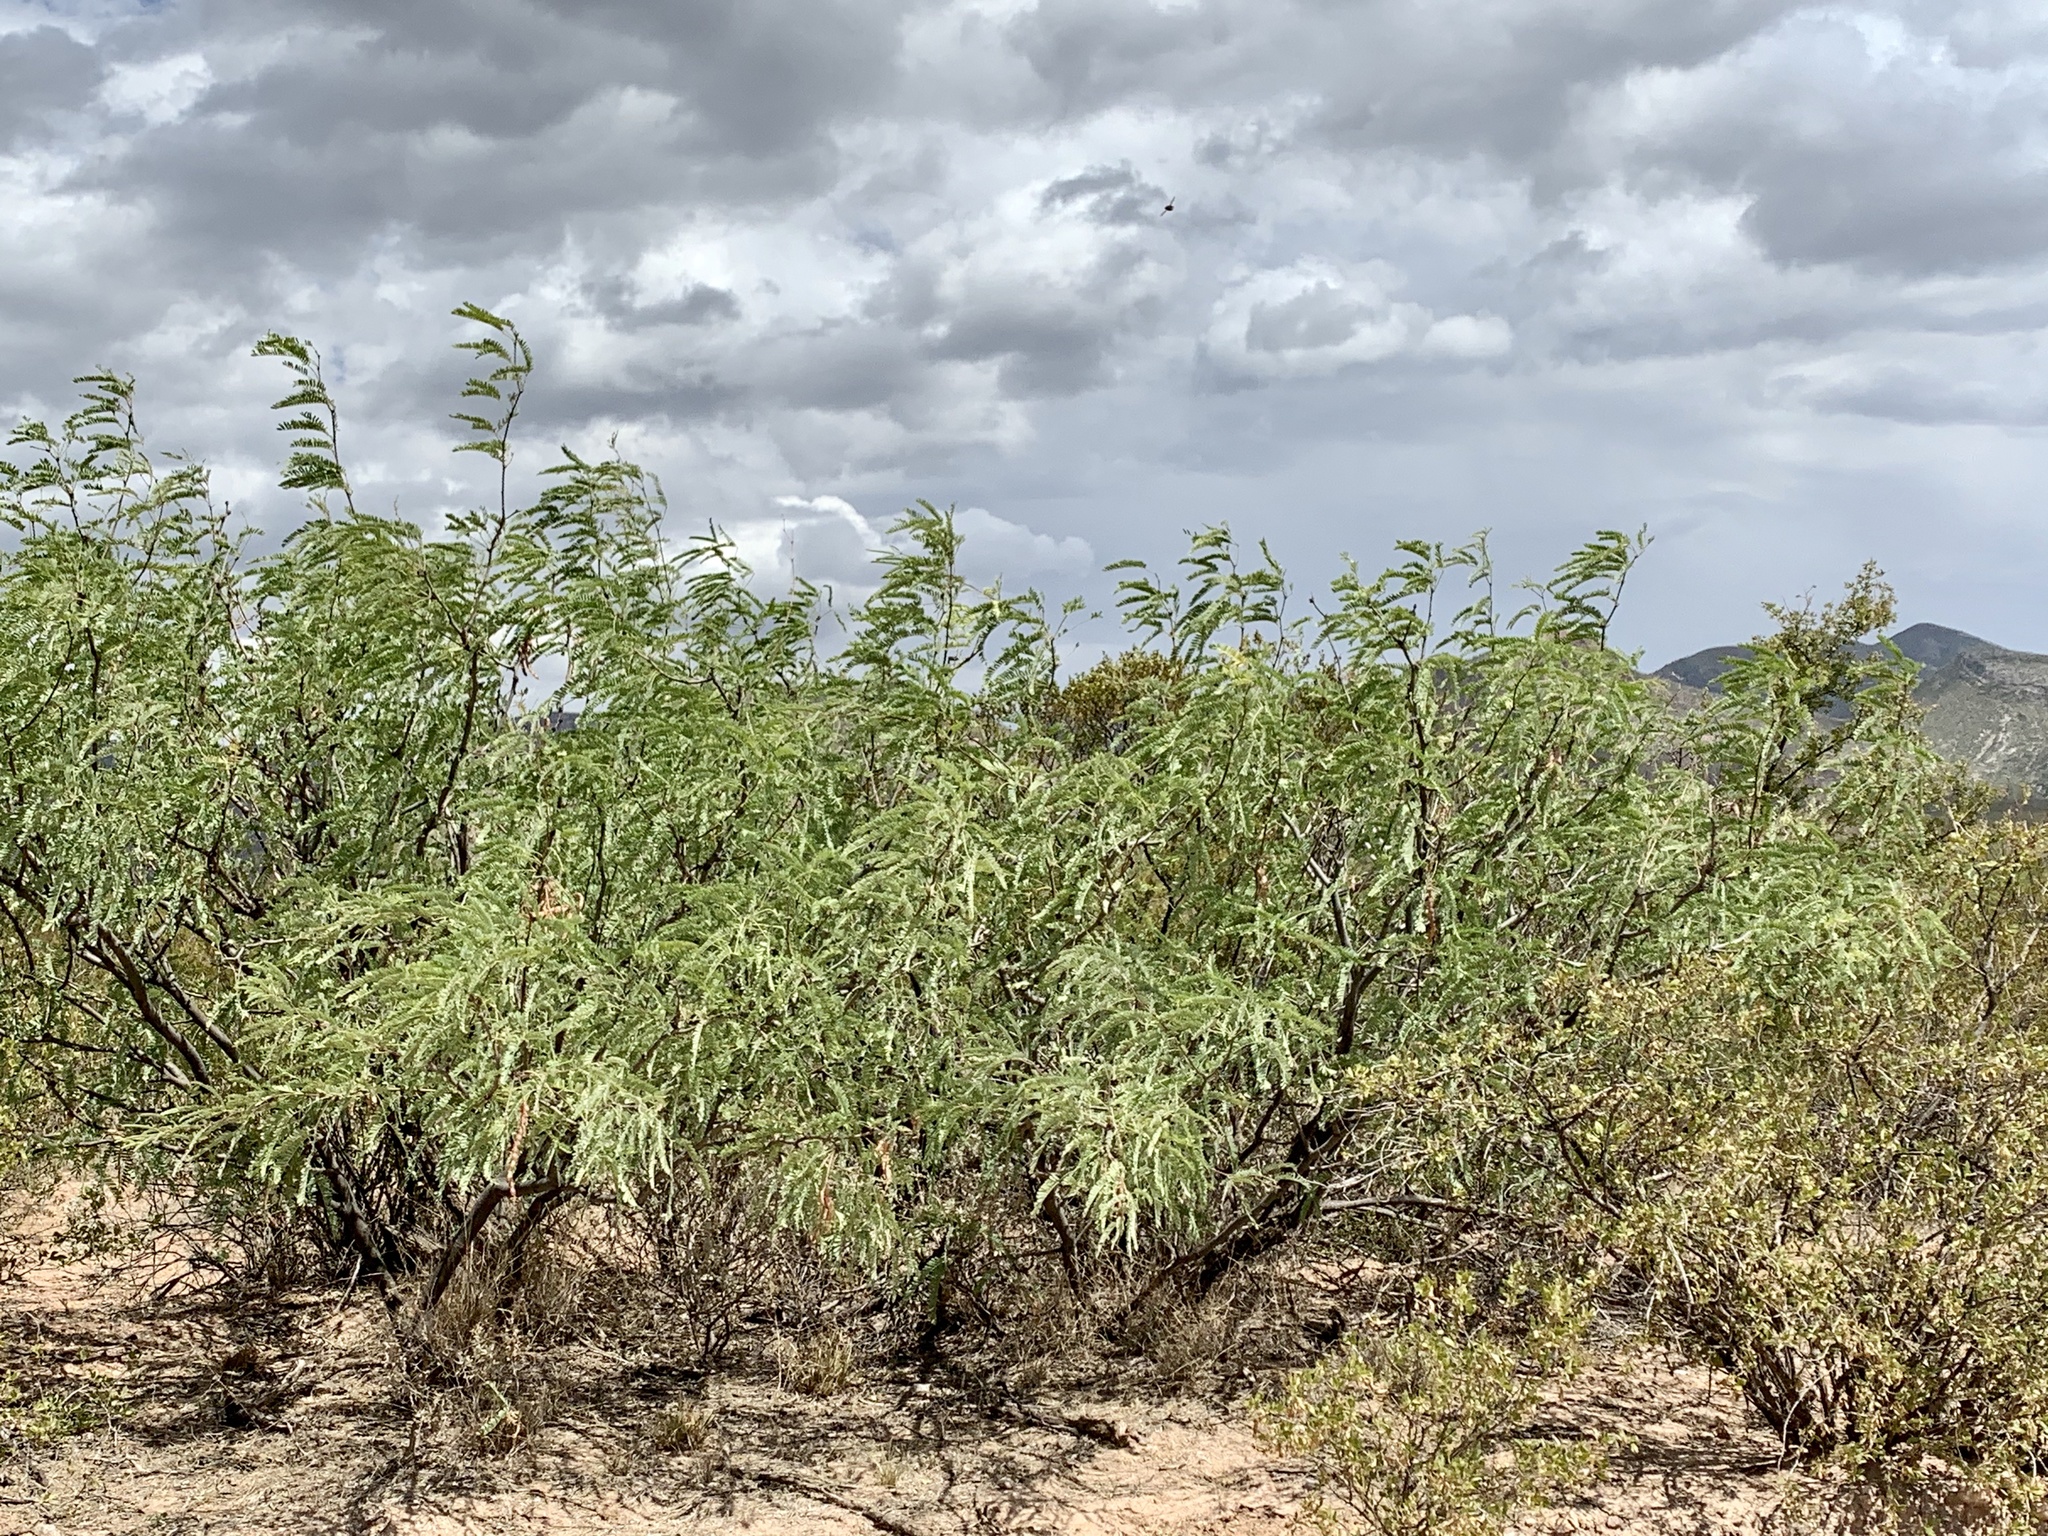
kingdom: Plantae
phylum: Tracheophyta
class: Magnoliopsida
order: Fabales
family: Fabaceae
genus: Prosopis
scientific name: Prosopis glandulosa
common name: Honey mesquite
